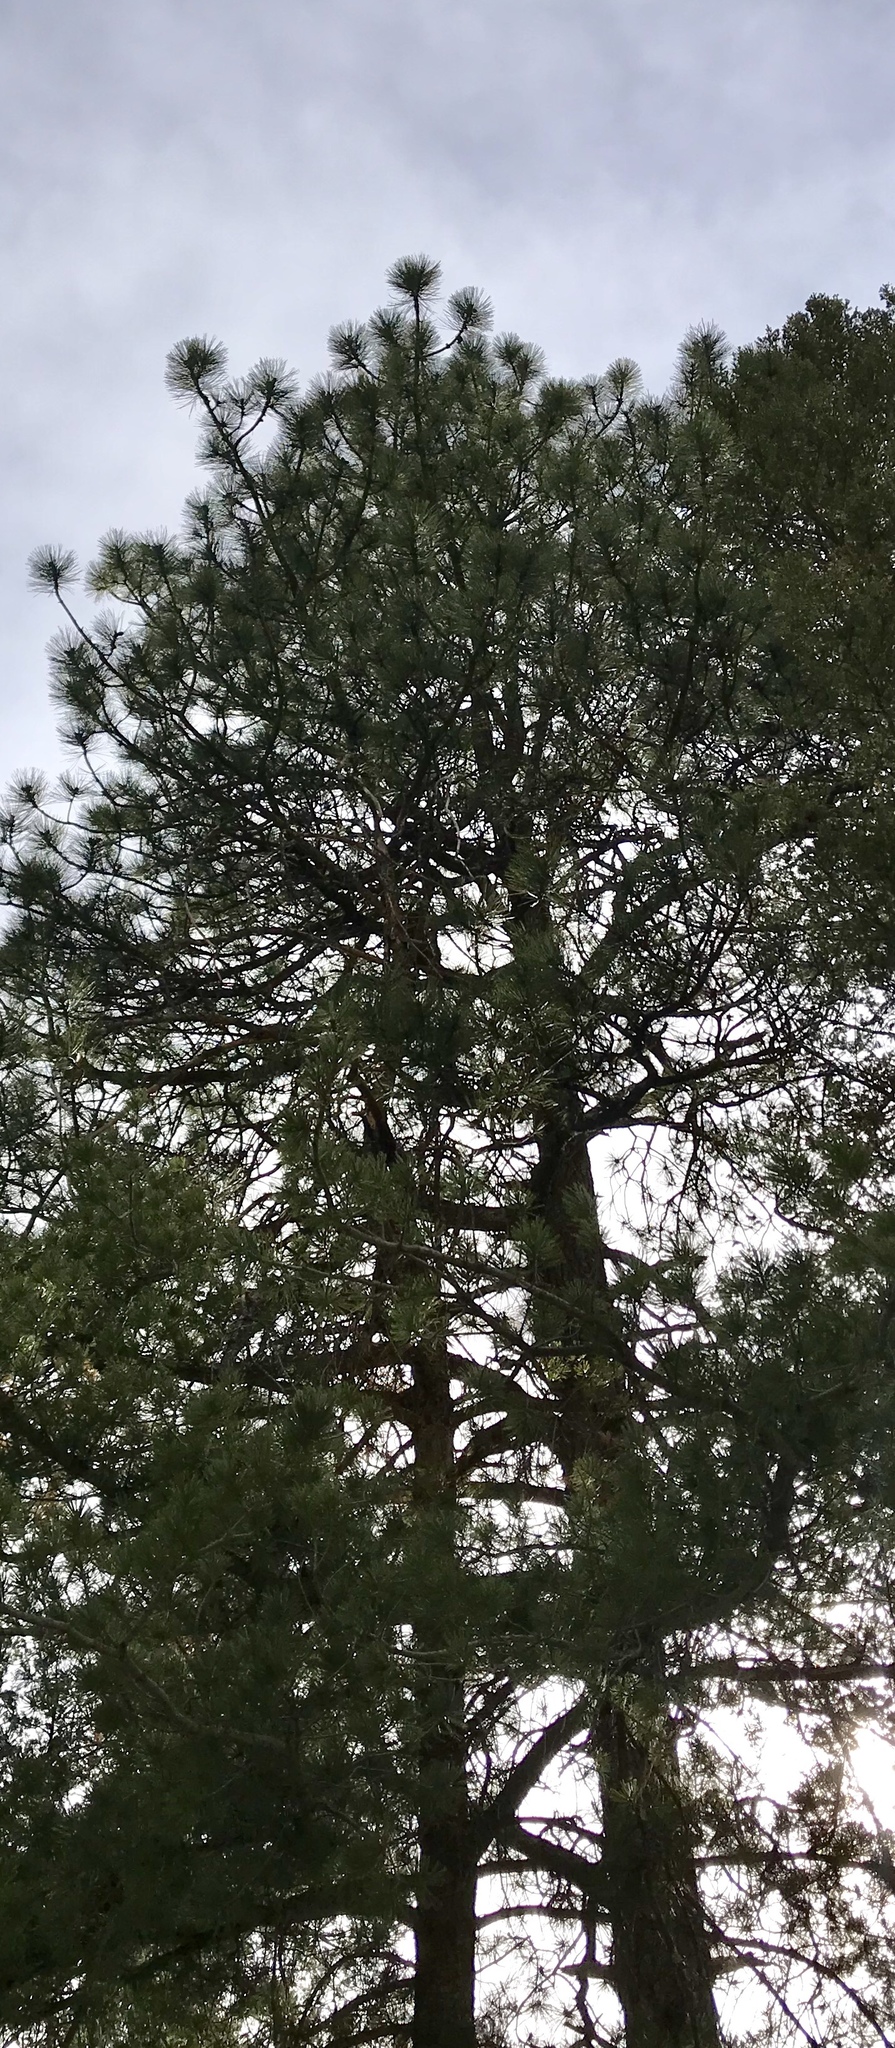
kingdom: Plantae
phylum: Tracheophyta
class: Pinopsida
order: Pinales
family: Pinaceae
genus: Pinus
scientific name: Pinus ponderosa
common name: Western yellow-pine
